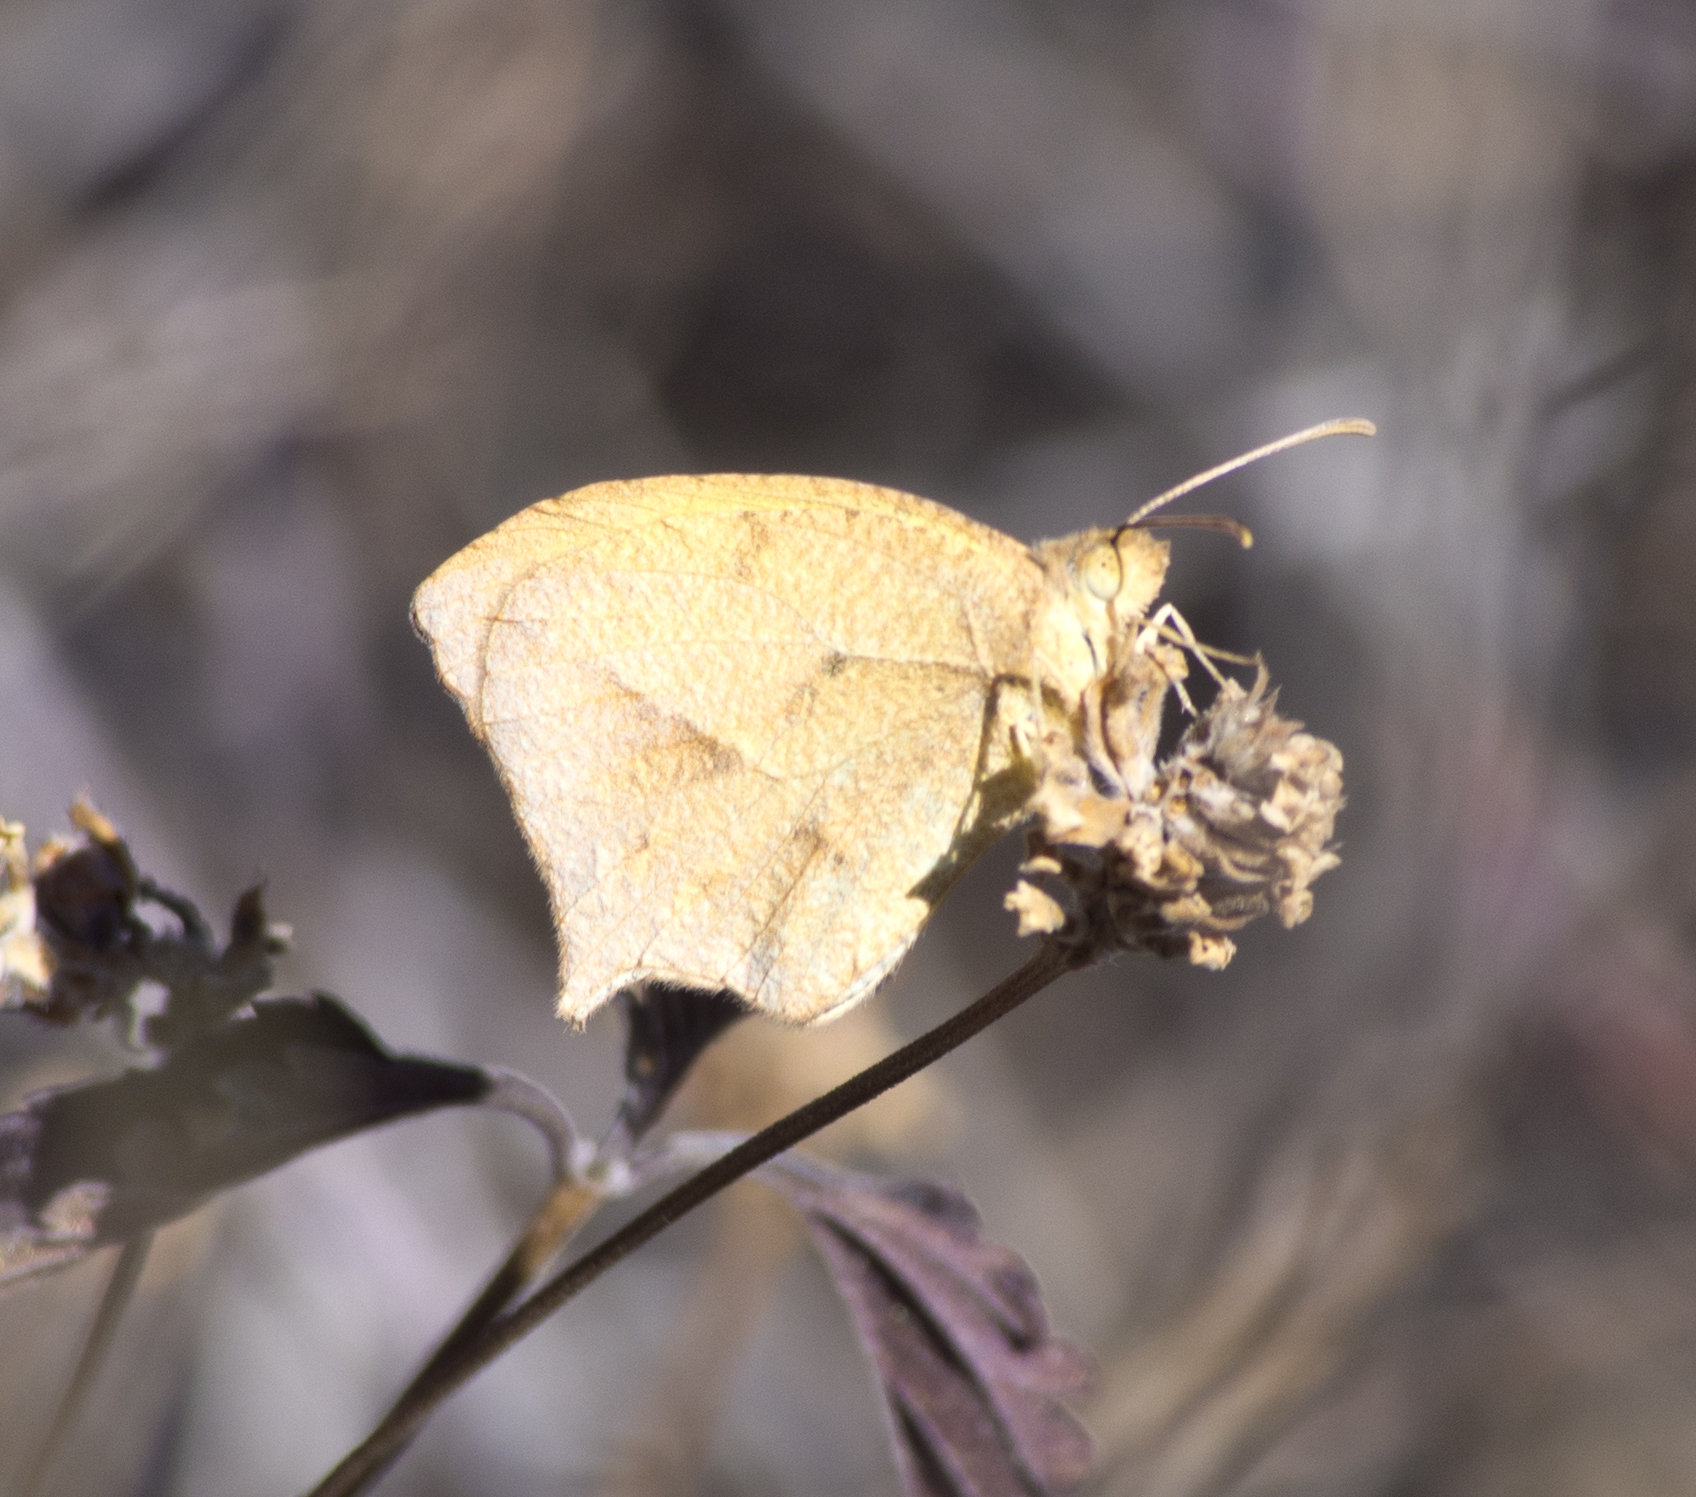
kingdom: Animalia
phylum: Arthropoda
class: Insecta
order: Lepidoptera
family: Pieridae
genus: Abaeis
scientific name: Abaeis mexicana
